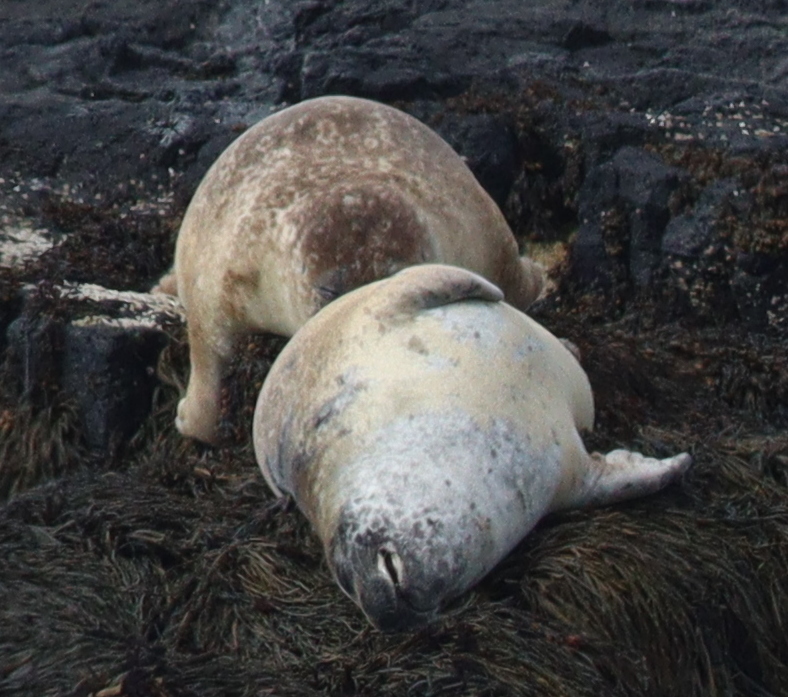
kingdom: Animalia
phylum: Chordata
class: Mammalia
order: Carnivora
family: Phocidae
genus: Phoca
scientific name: Phoca vitulina
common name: Harbor seal
